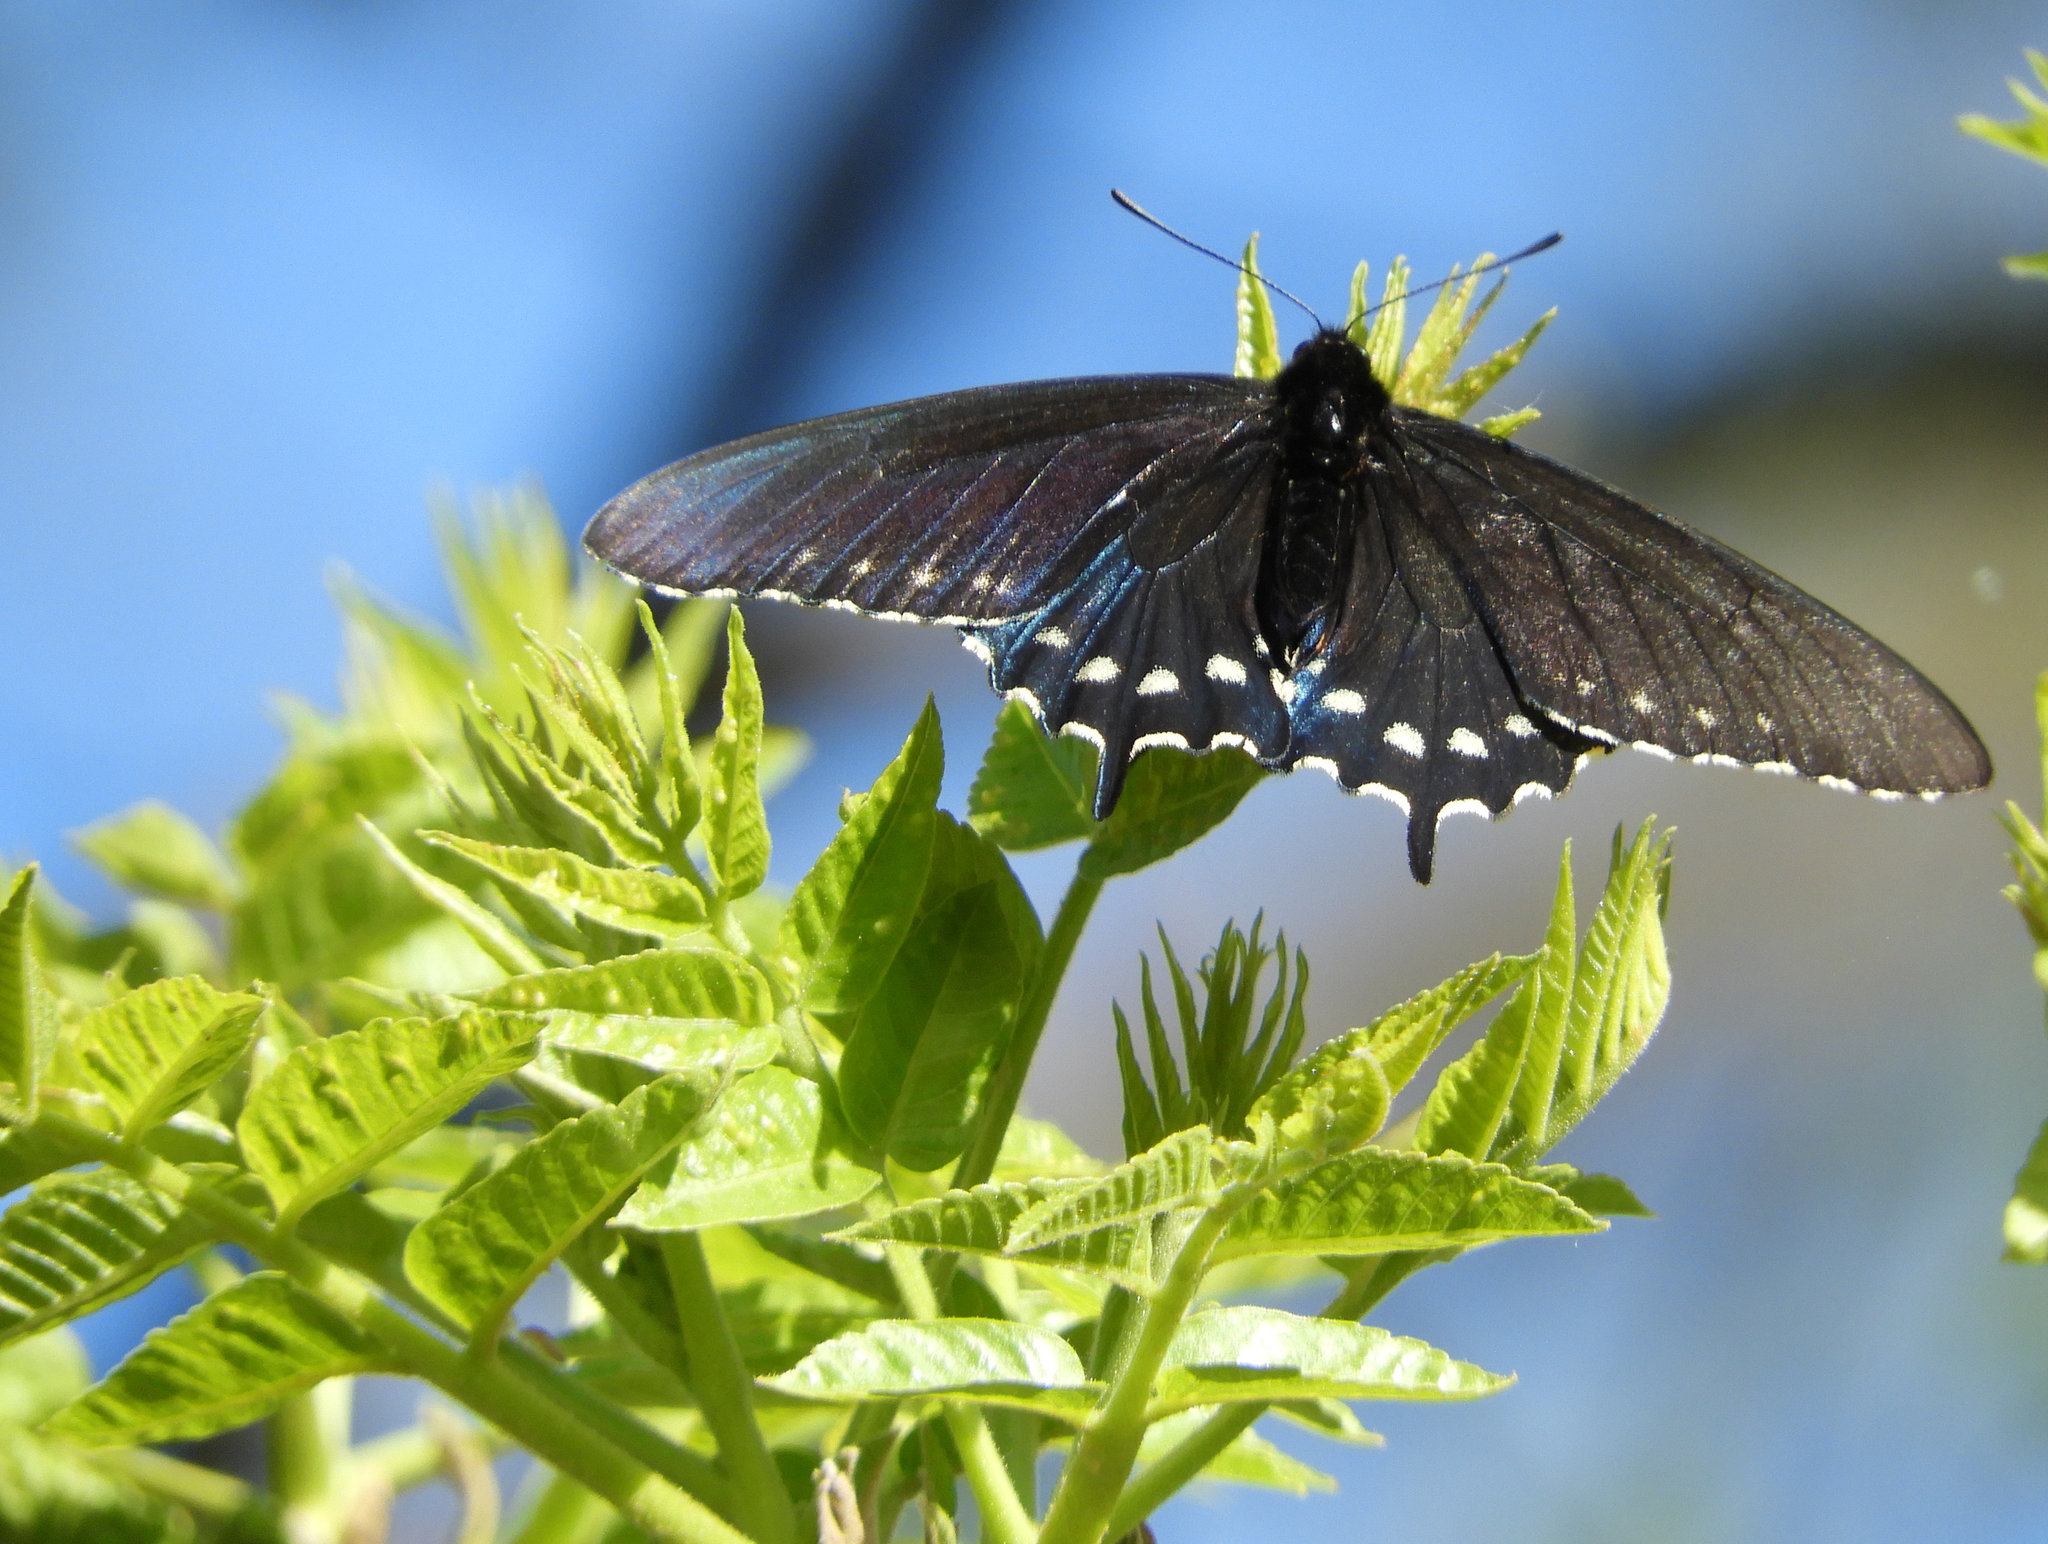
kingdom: Animalia
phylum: Arthropoda
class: Insecta
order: Lepidoptera
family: Papilionidae
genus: Battus
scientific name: Battus philenor
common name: Pipevine swallowtail
